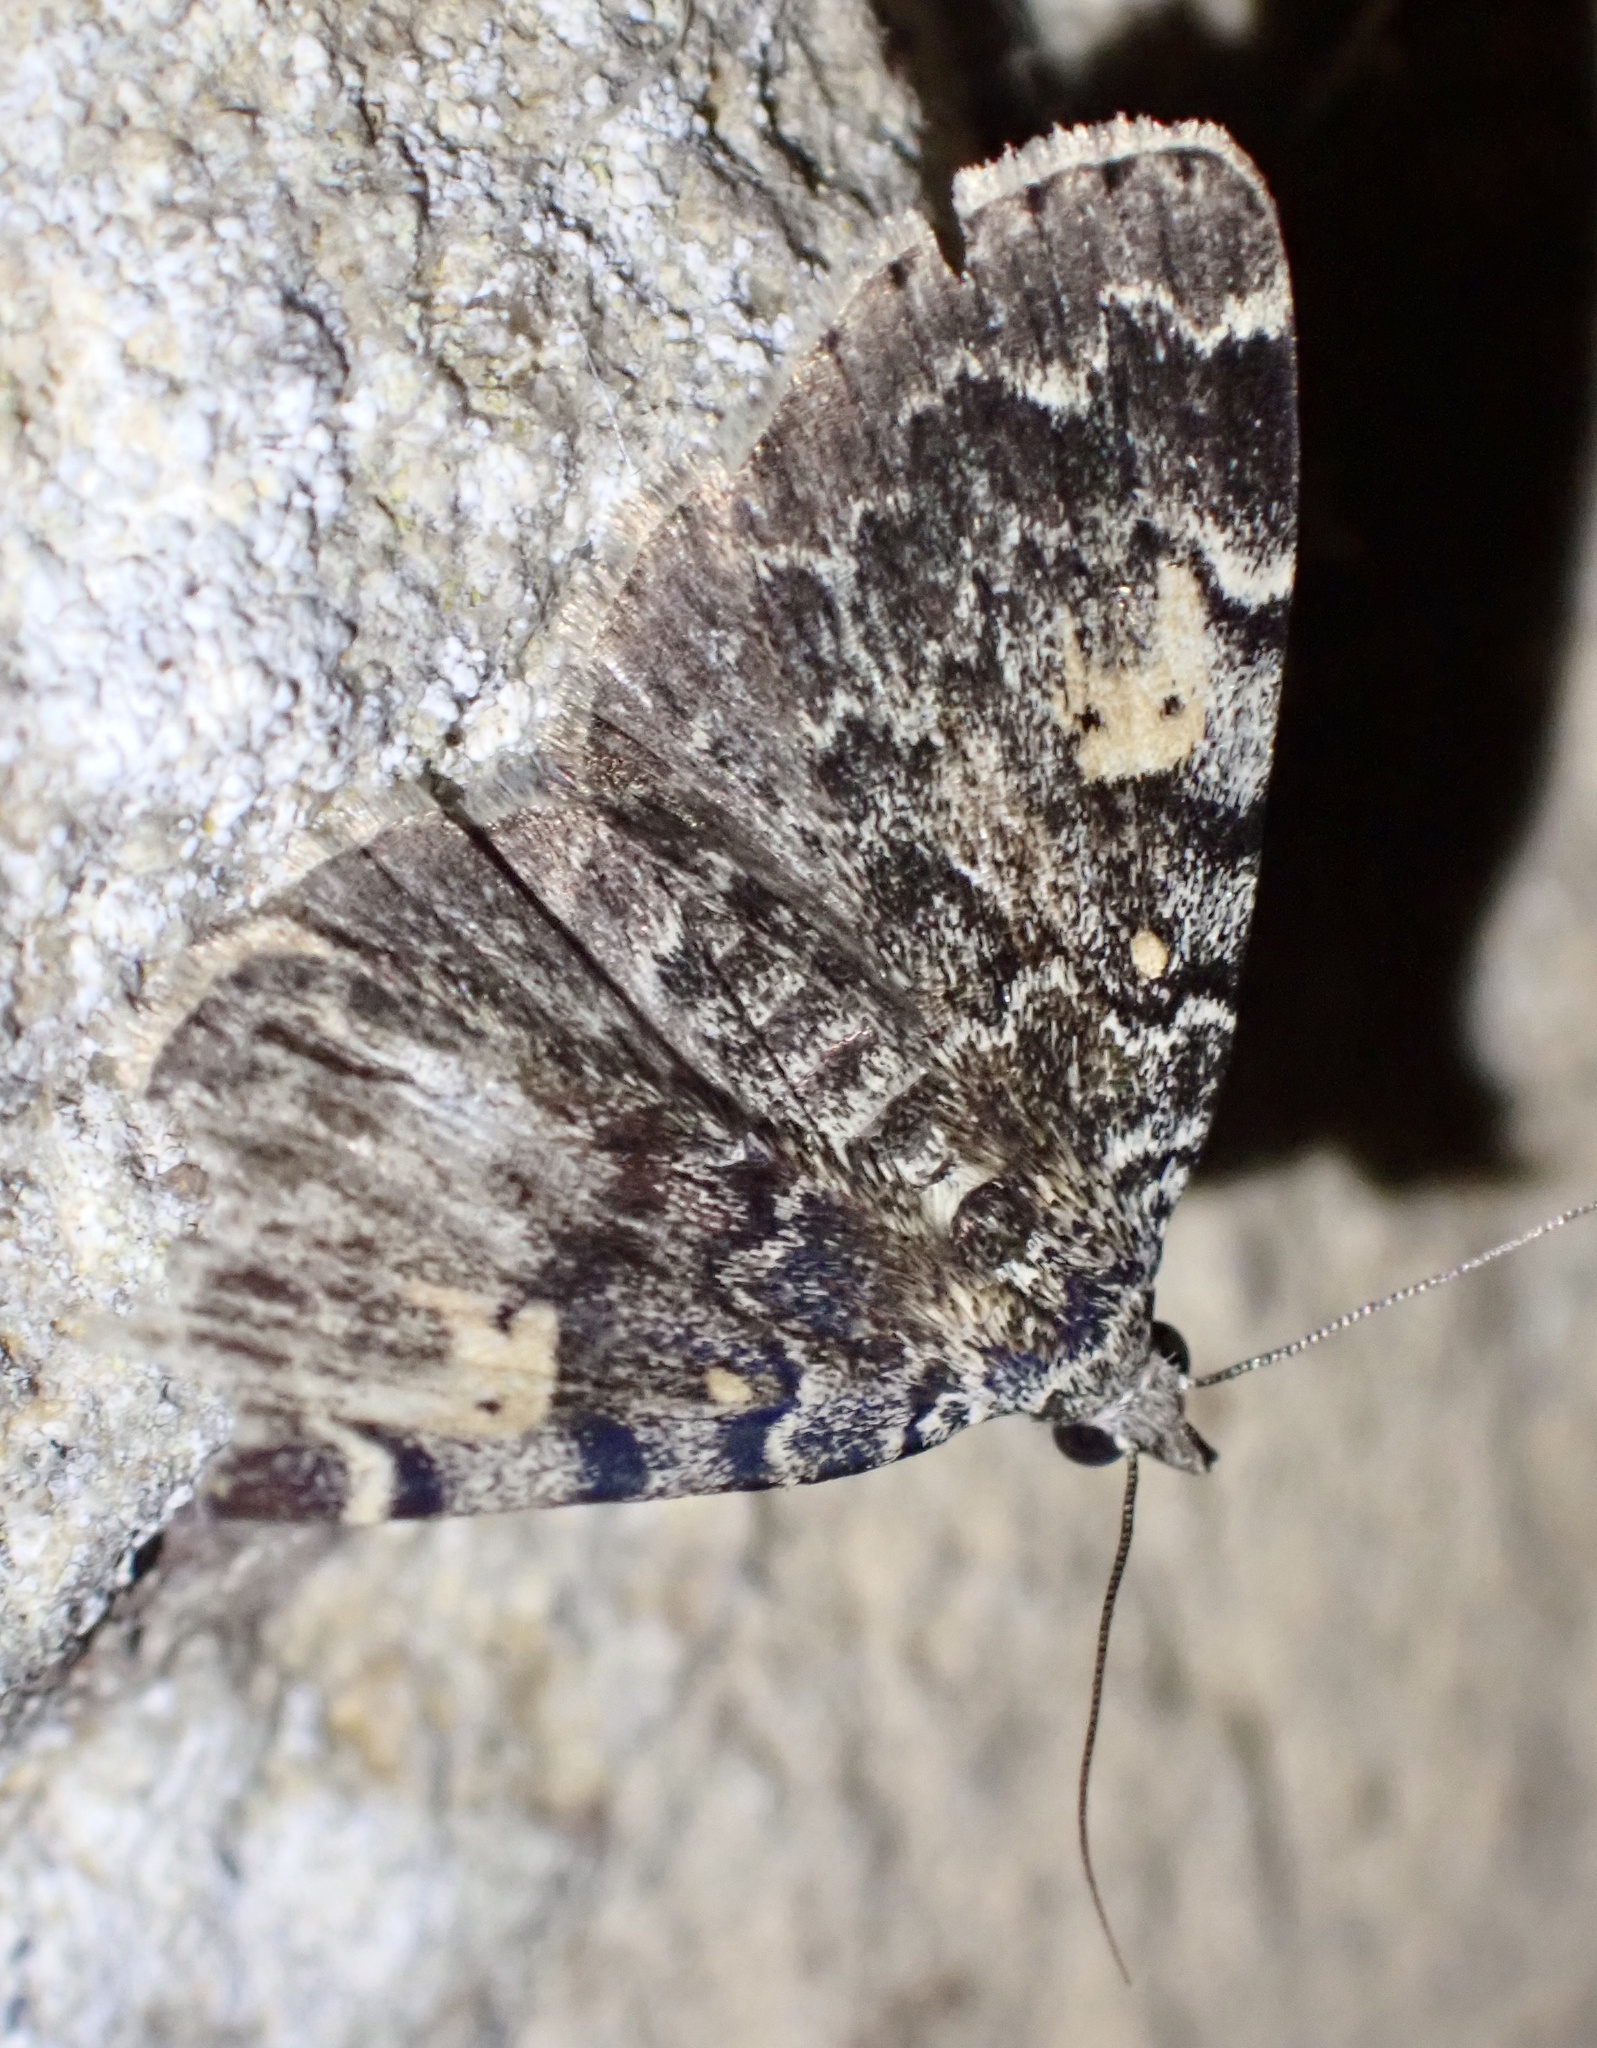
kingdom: Animalia
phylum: Arthropoda
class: Insecta
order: Lepidoptera
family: Erebidae
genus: Idia
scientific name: Idia calvaria
